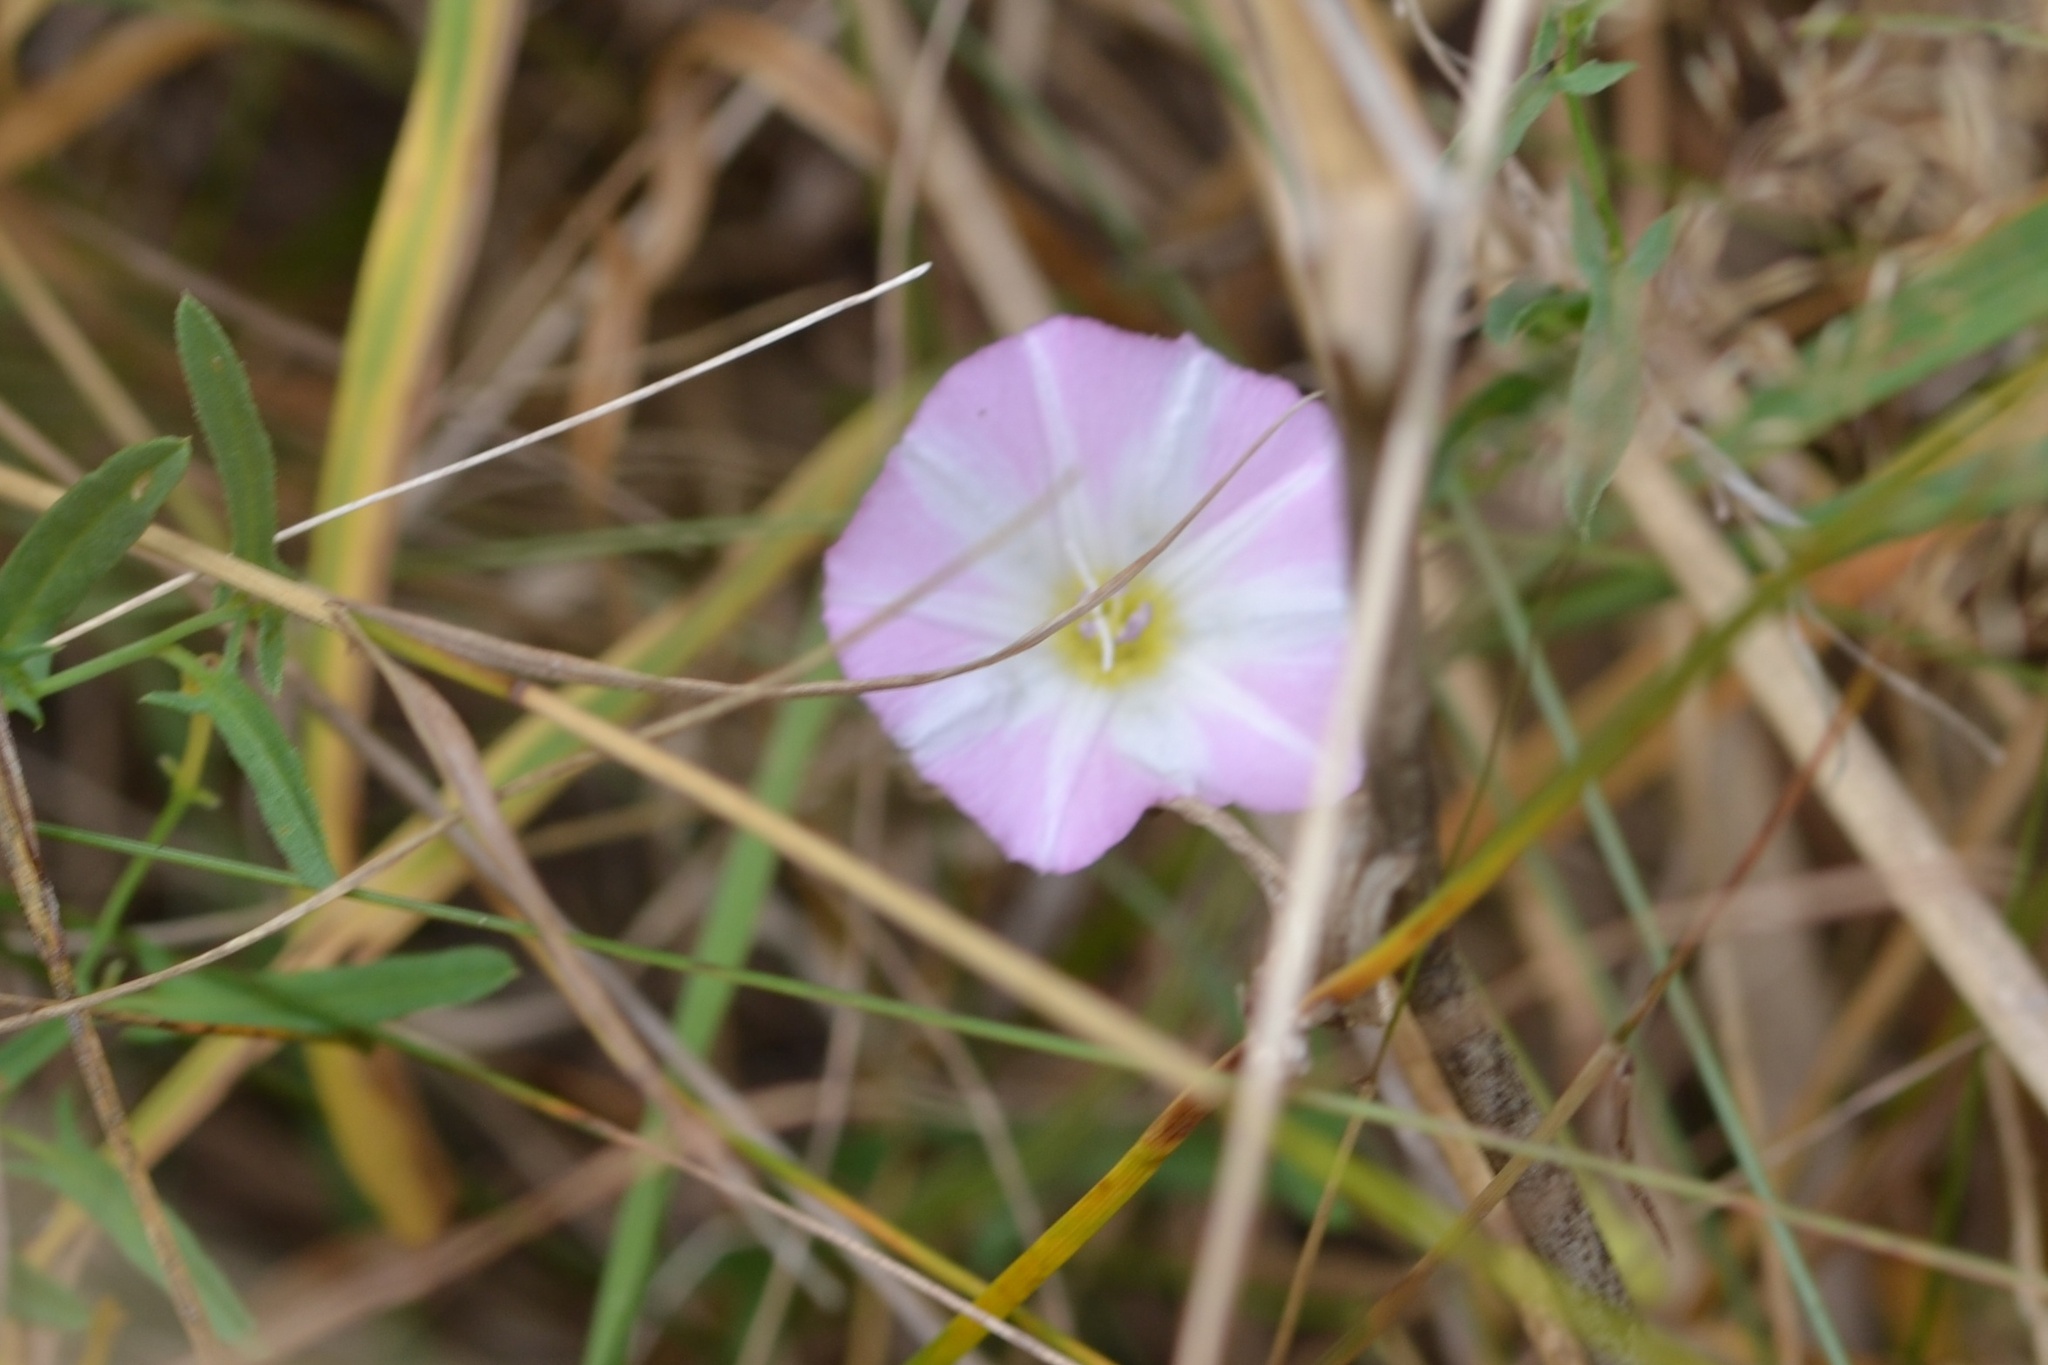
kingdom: Plantae
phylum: Tracheophyta
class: Magnoliopsida
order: Solanales
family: Convolvulaceae
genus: Convolvulus
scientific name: Convolvulus arvensis
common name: Field bindweed
